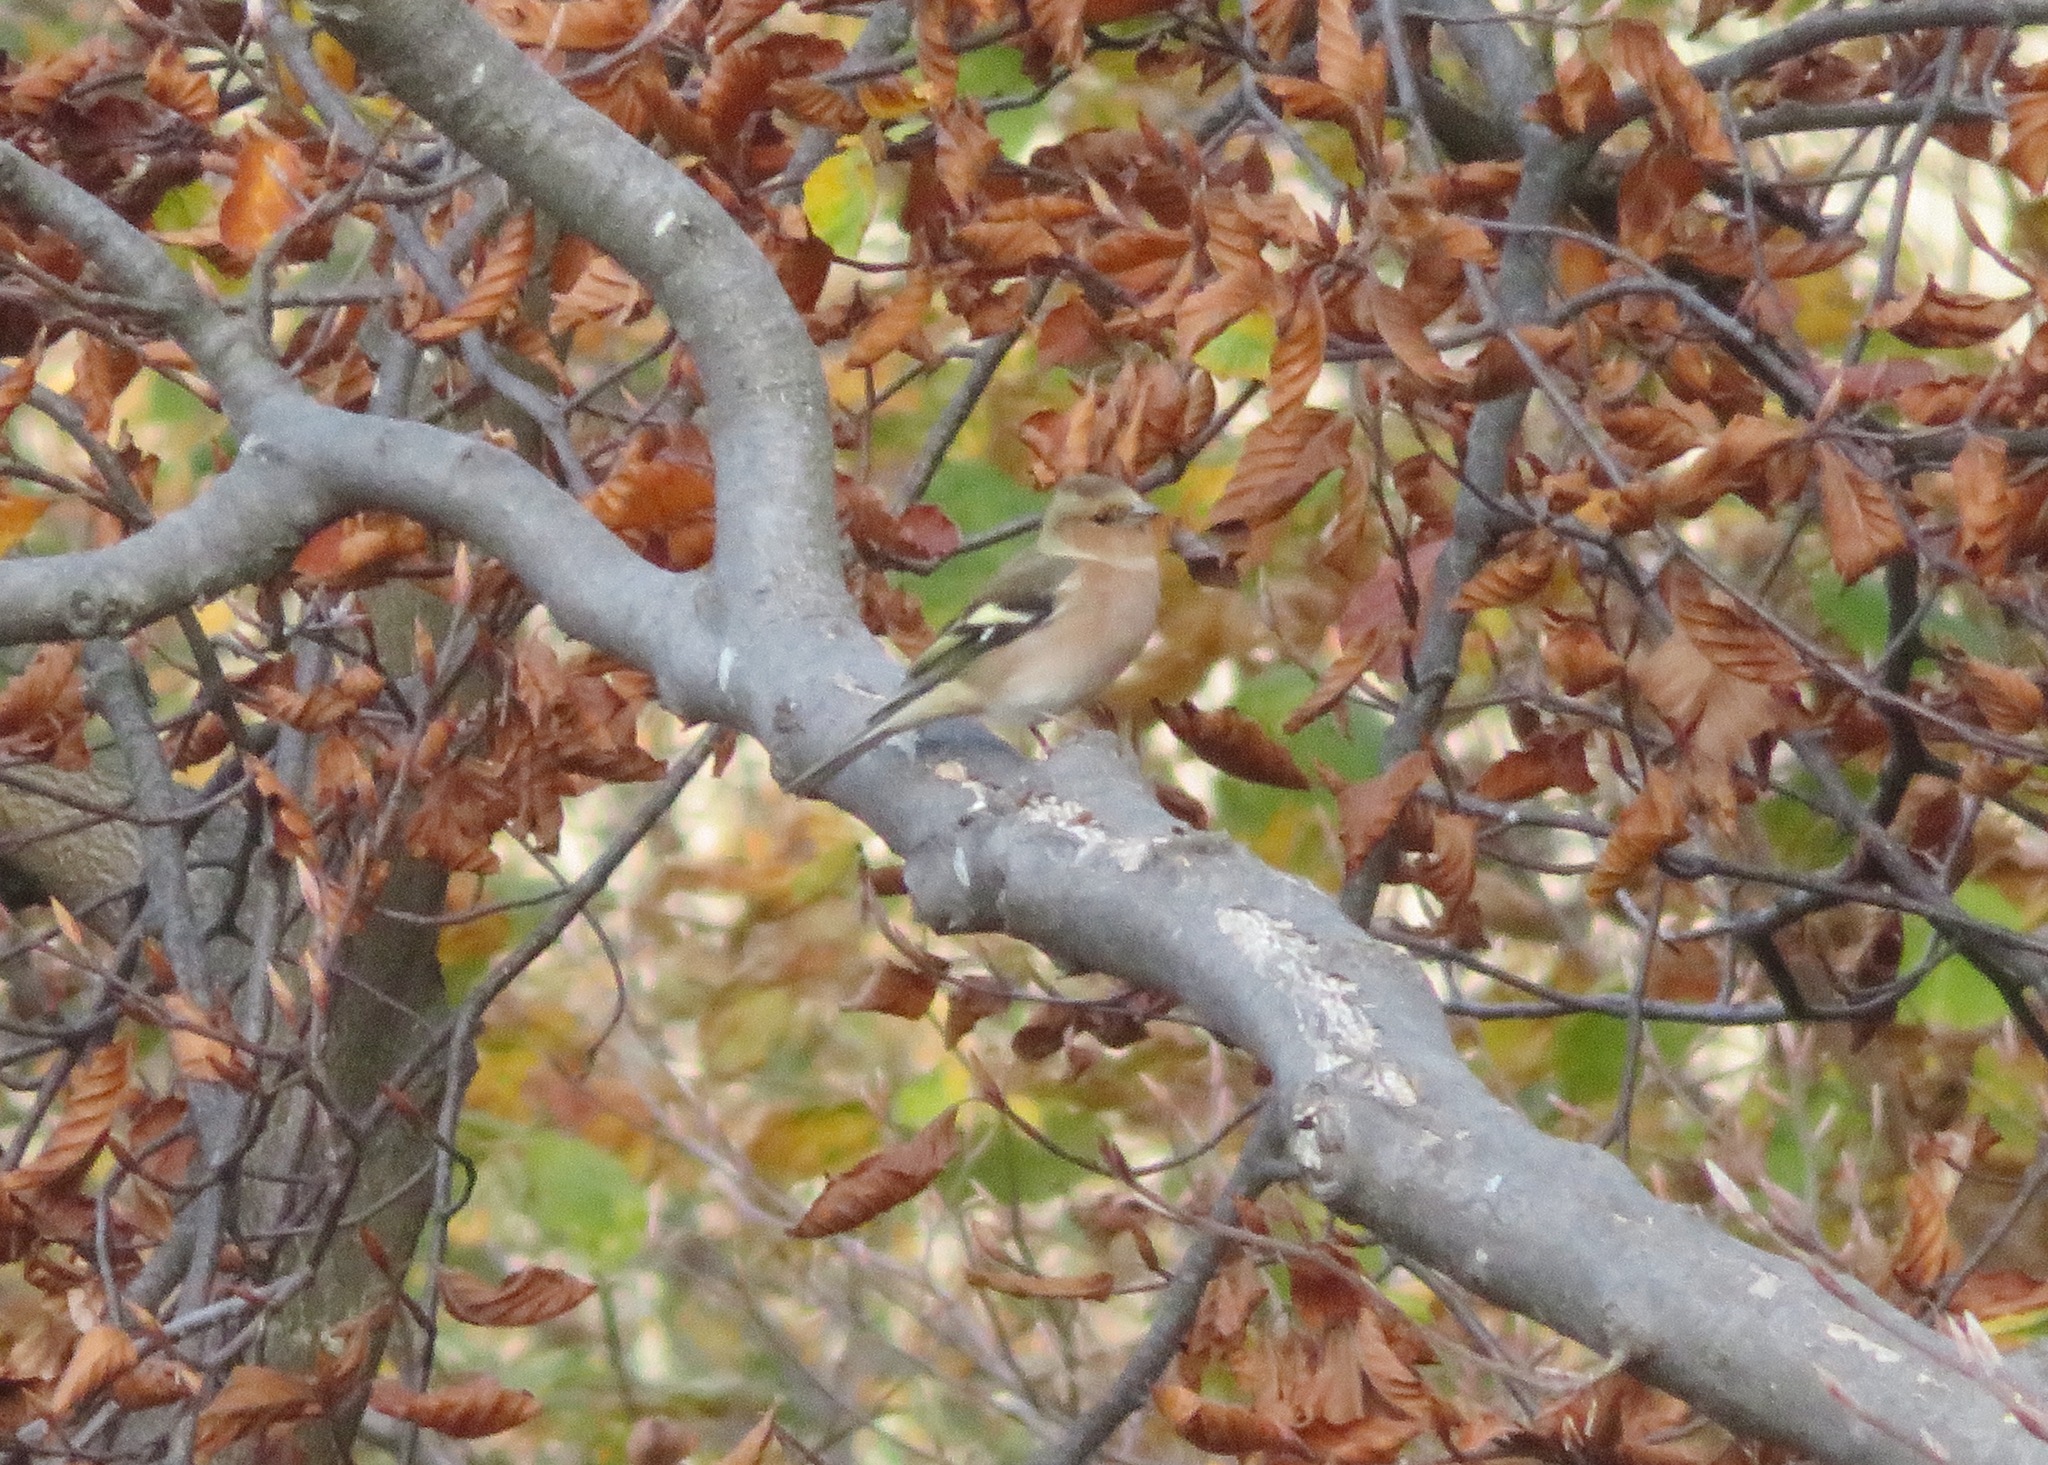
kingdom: Animalia
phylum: Chordata
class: Aves
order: Passeriformes
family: Fringillidae
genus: Fringilla
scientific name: Fringilla coelebs
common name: Common chaffinch
